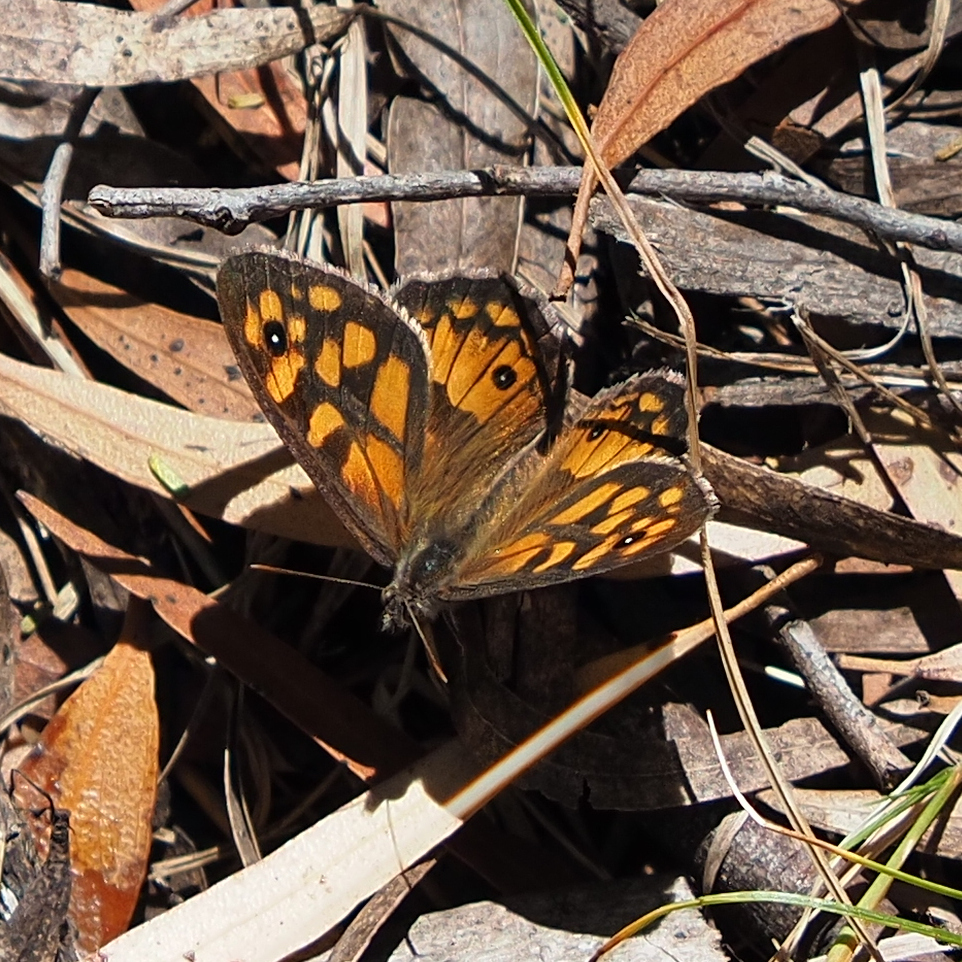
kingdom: Animalia
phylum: Arthropoda
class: Insecta
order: Lepidoptera
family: Nymphalidae
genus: Geitoneura
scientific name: Geitoneura klugii
